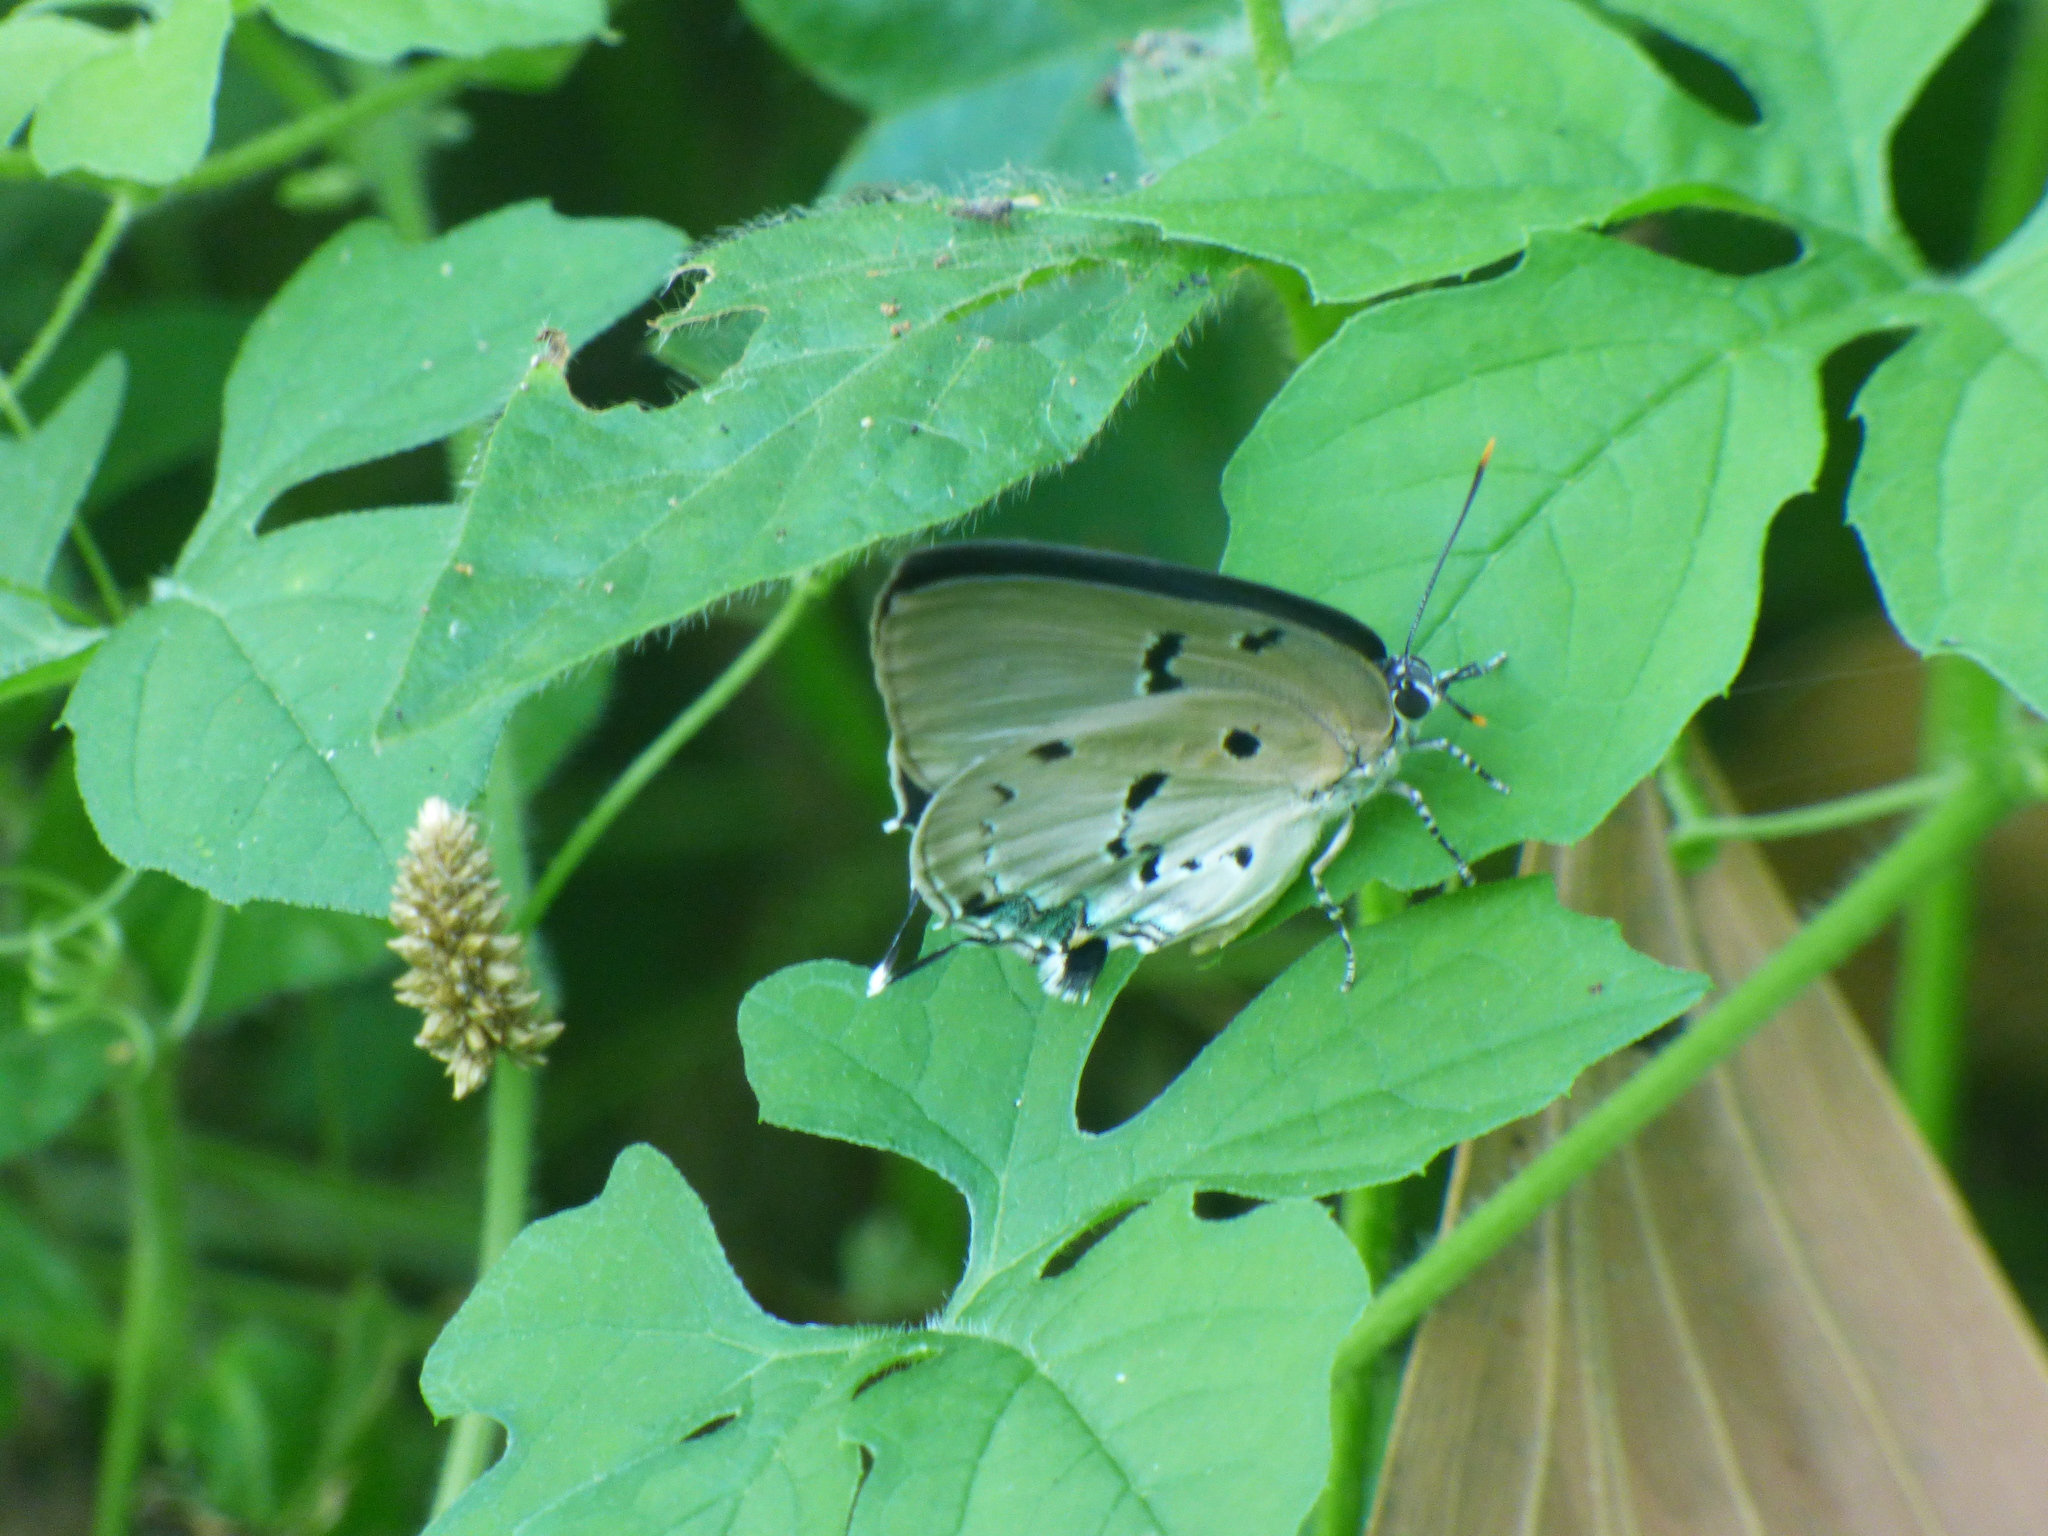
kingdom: Animalia
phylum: Arthropoda
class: Insecta
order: Lepidoptera
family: Lycaenidae
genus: Oenomaus
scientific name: Oenomaus ortygnus
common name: Aquamarine hairstreak
